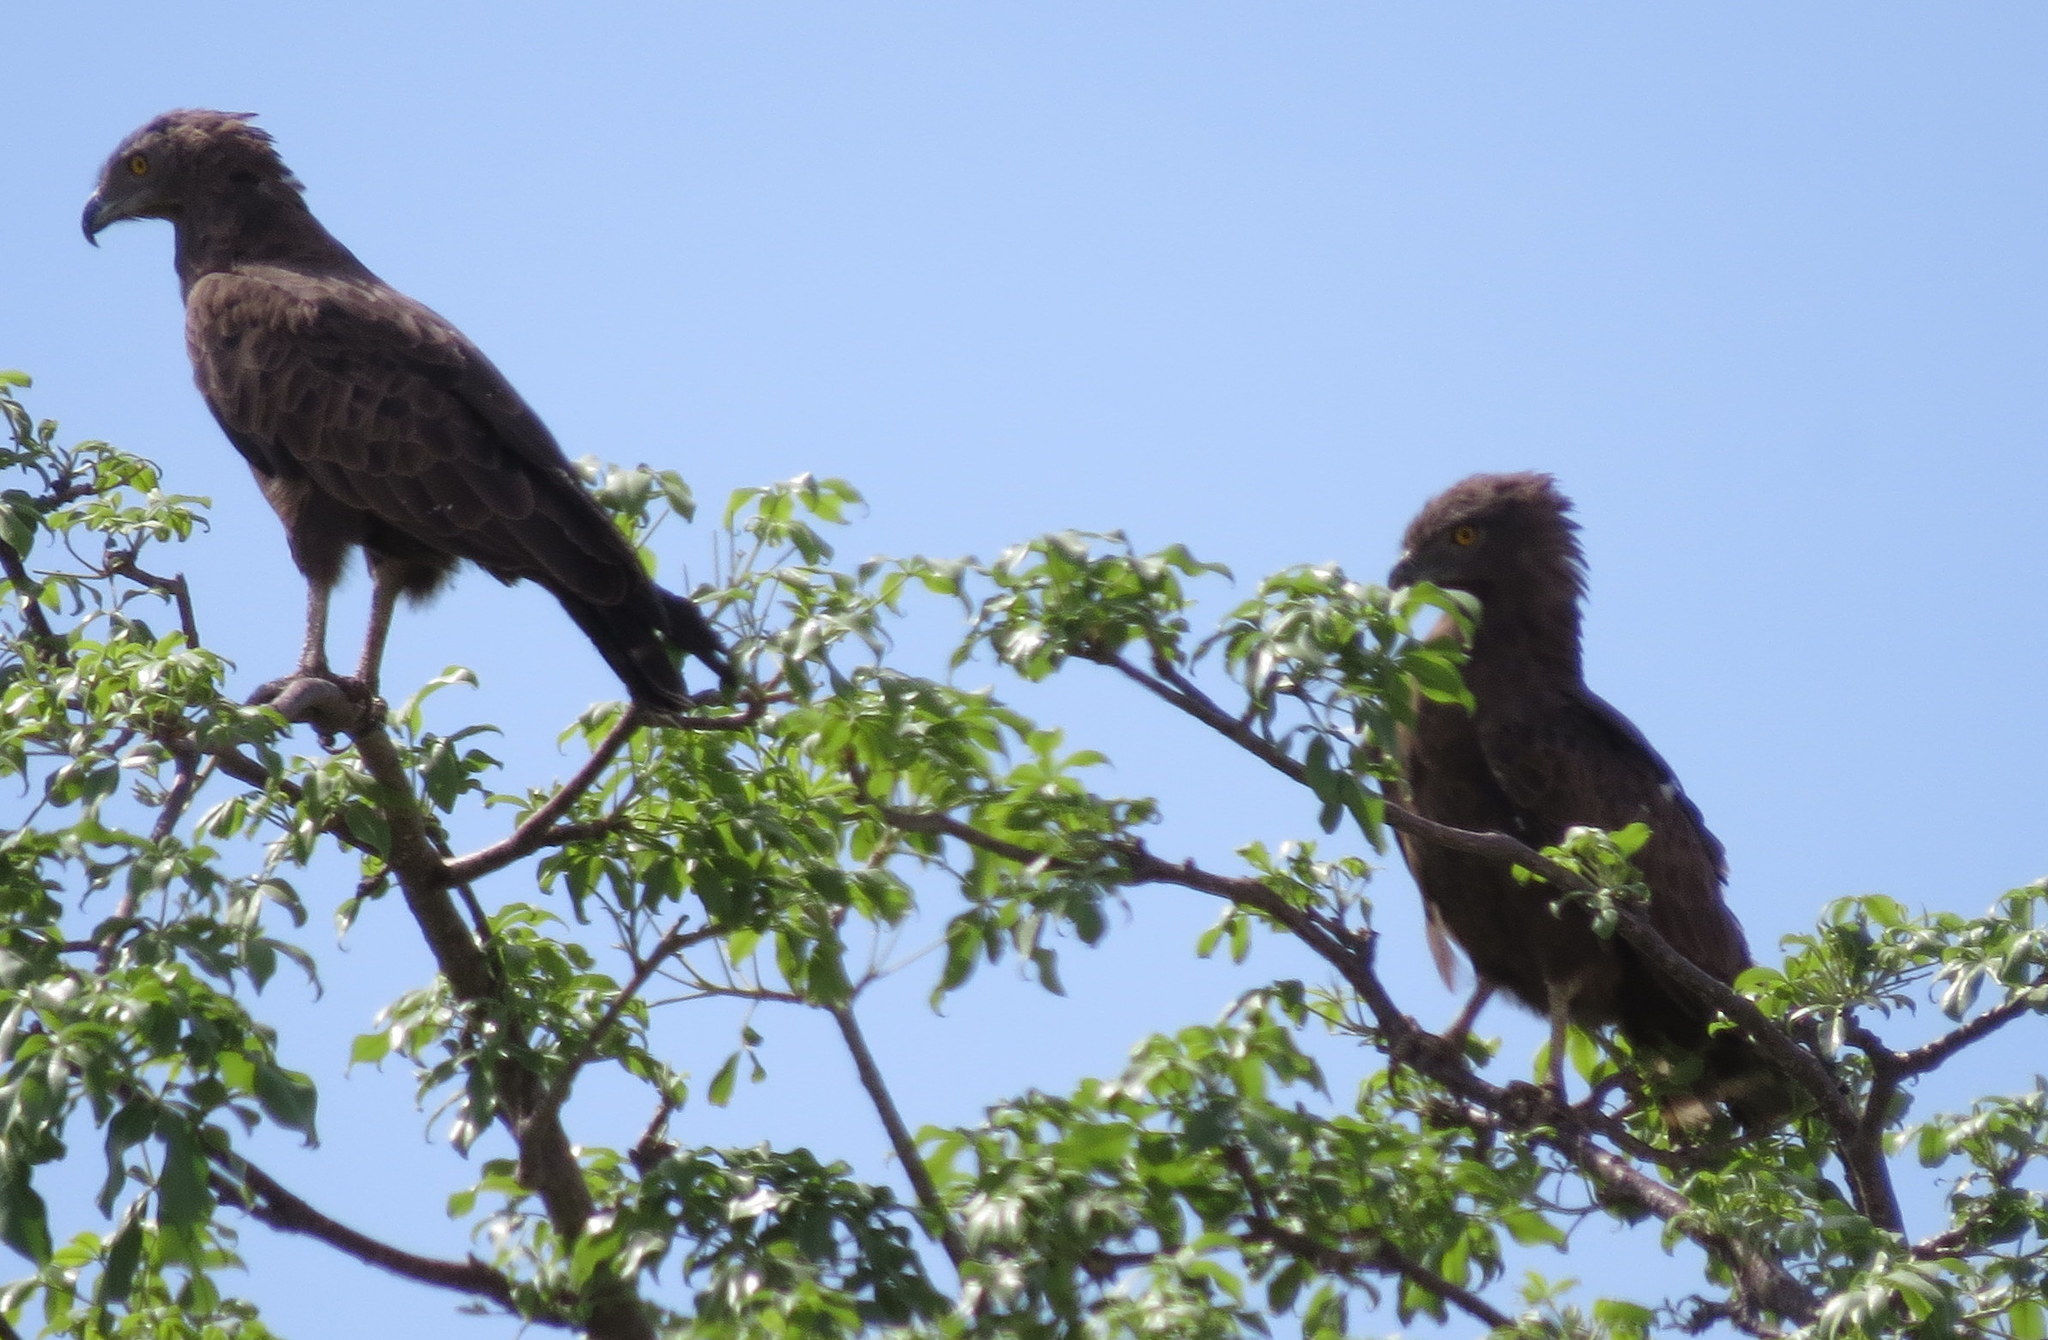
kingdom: Animalia
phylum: Chordata
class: Aves
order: Accipitriformes
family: Accipitridae
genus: Circaetus
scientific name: Circaetus cinereus
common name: Brown snake eagle
